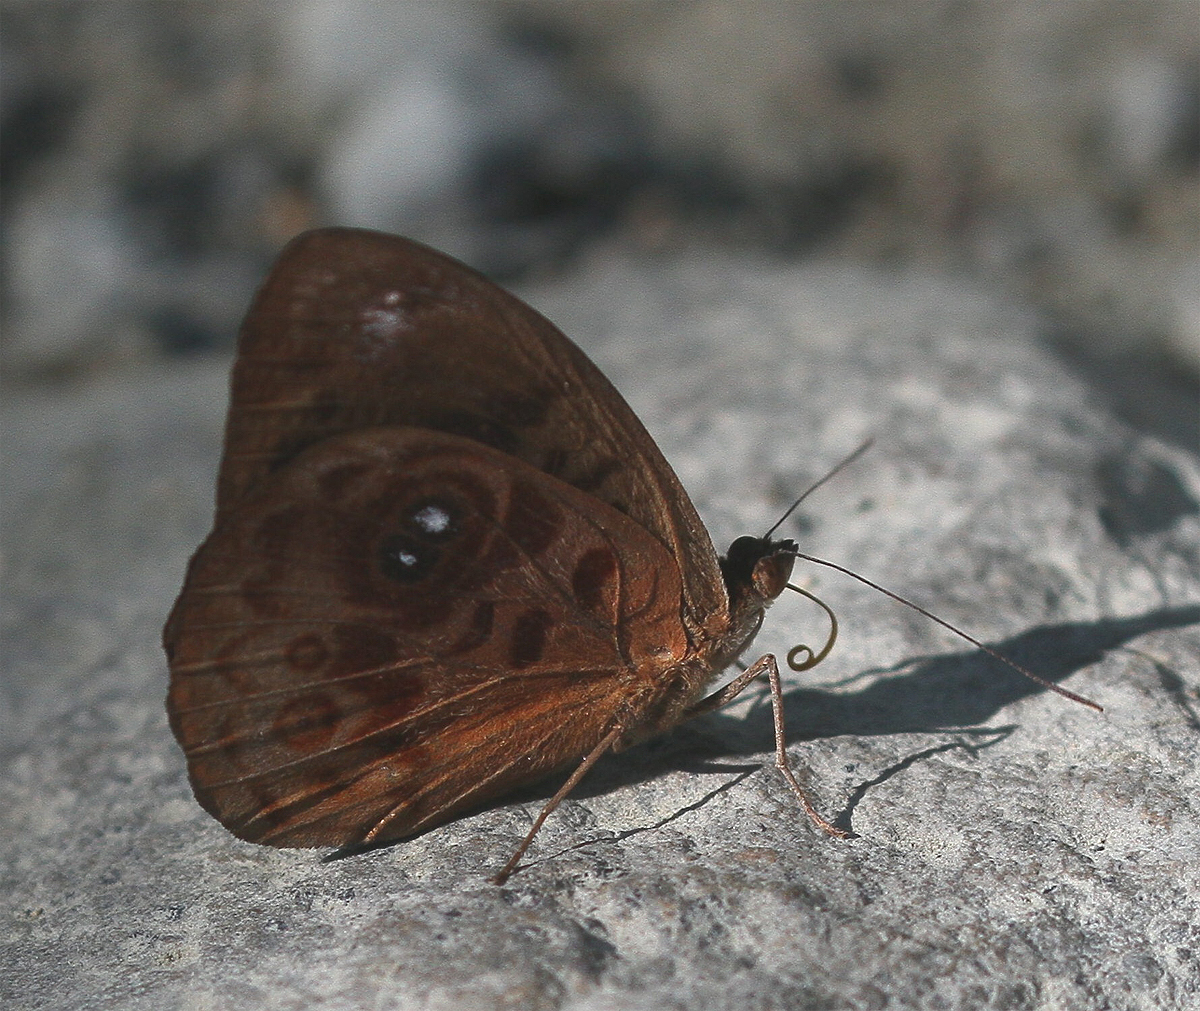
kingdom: Animalia
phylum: Arthropoda
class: Insecta
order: Lepidoptera
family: Nymphalidae
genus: Eunica
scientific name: Eunica
